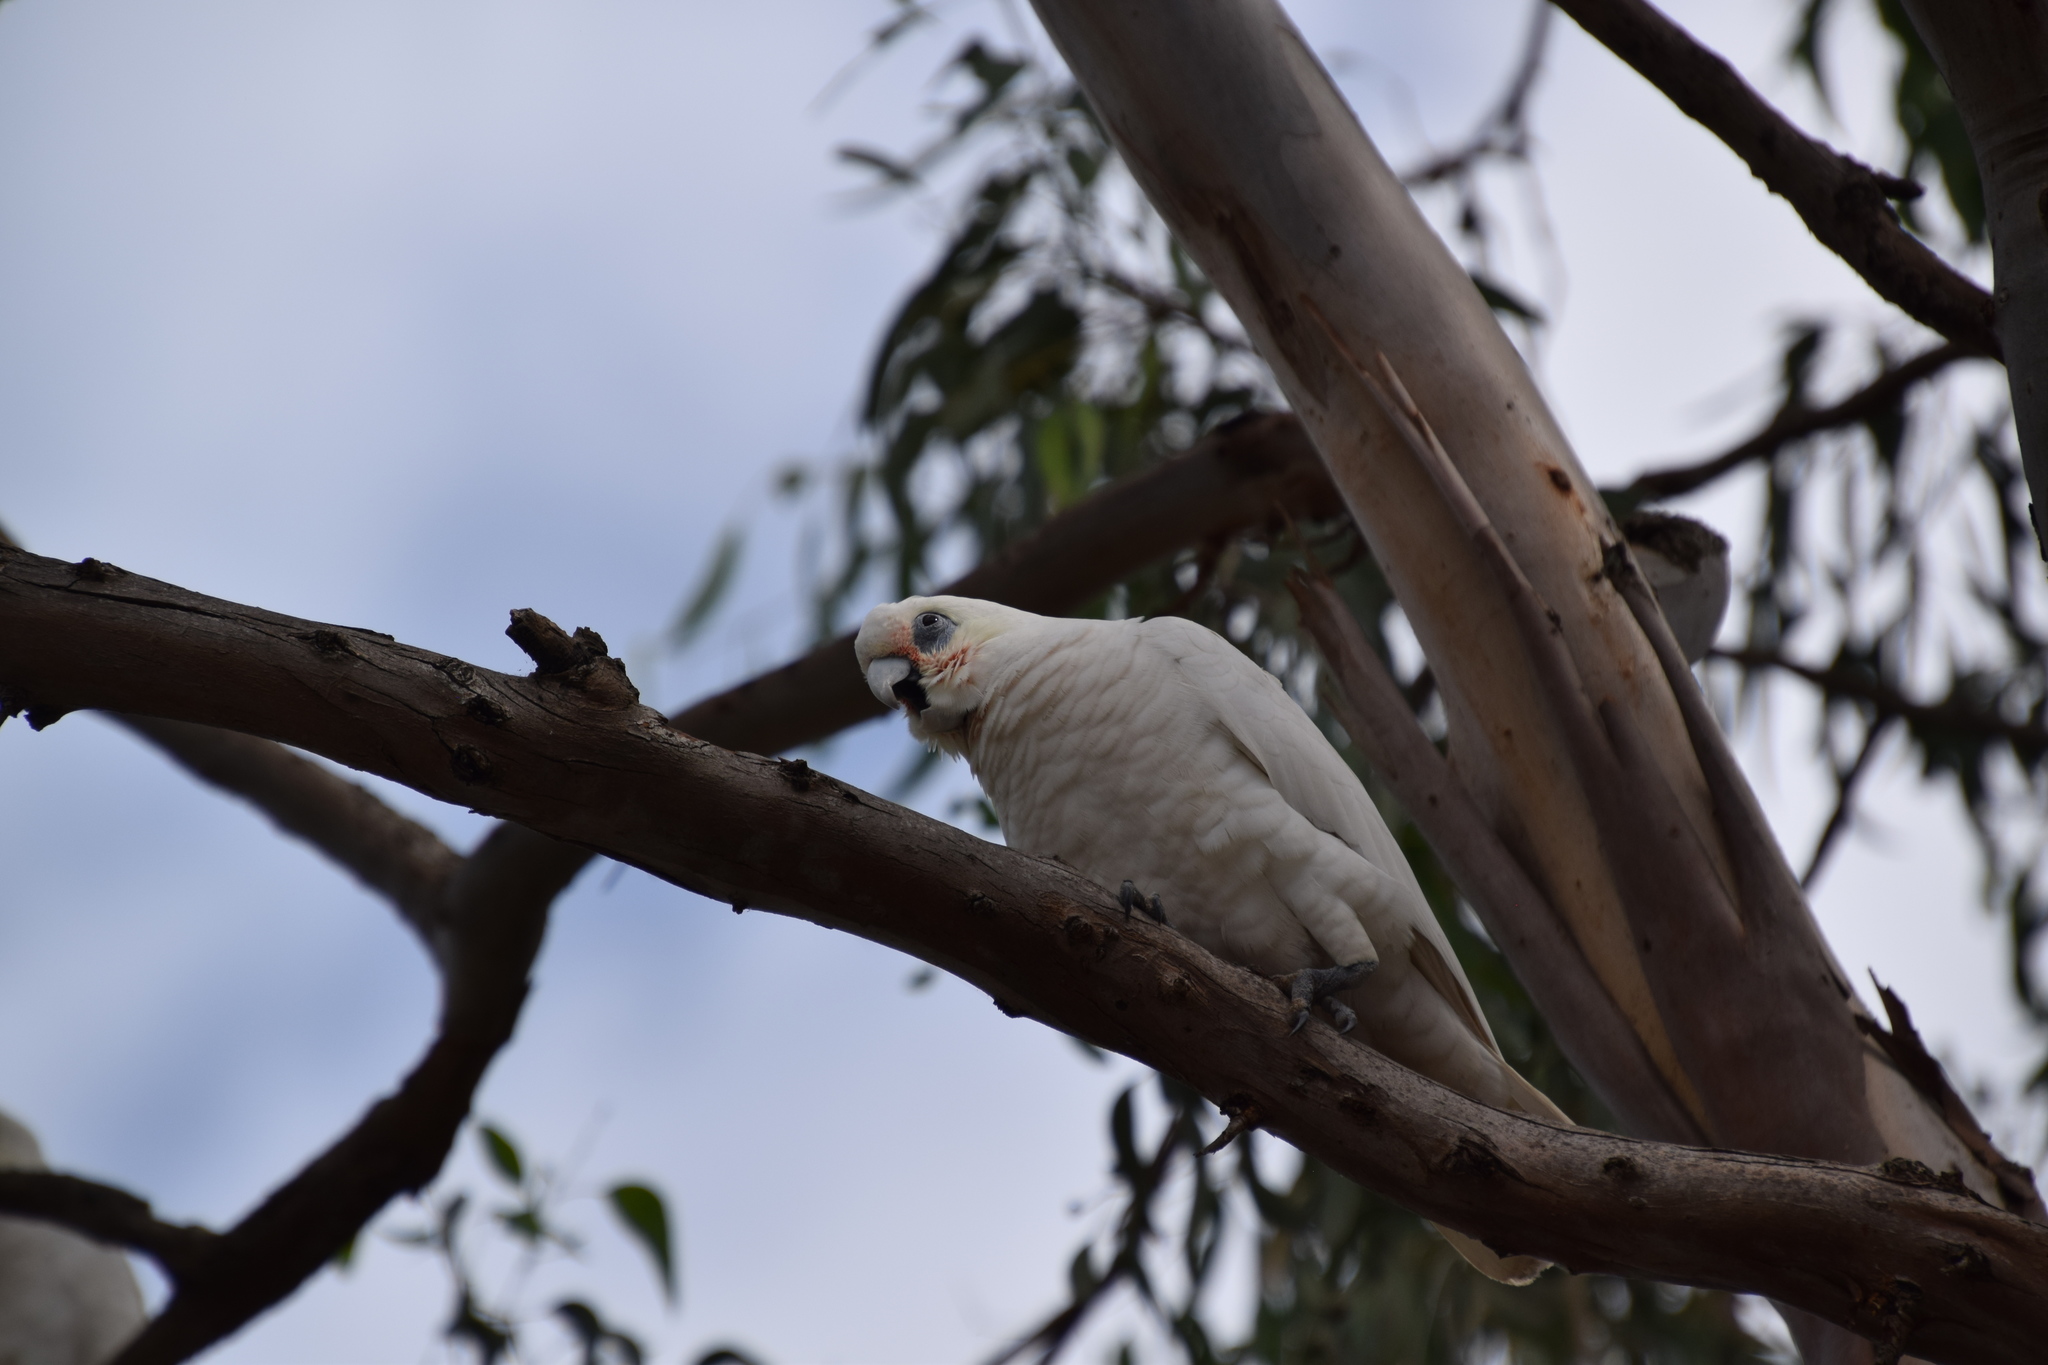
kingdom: Animalia
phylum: Chordata
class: Aves
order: Psittaciformes
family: Psittacidae
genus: Cacatua
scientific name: Cacatua sanguinea
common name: Little corella
